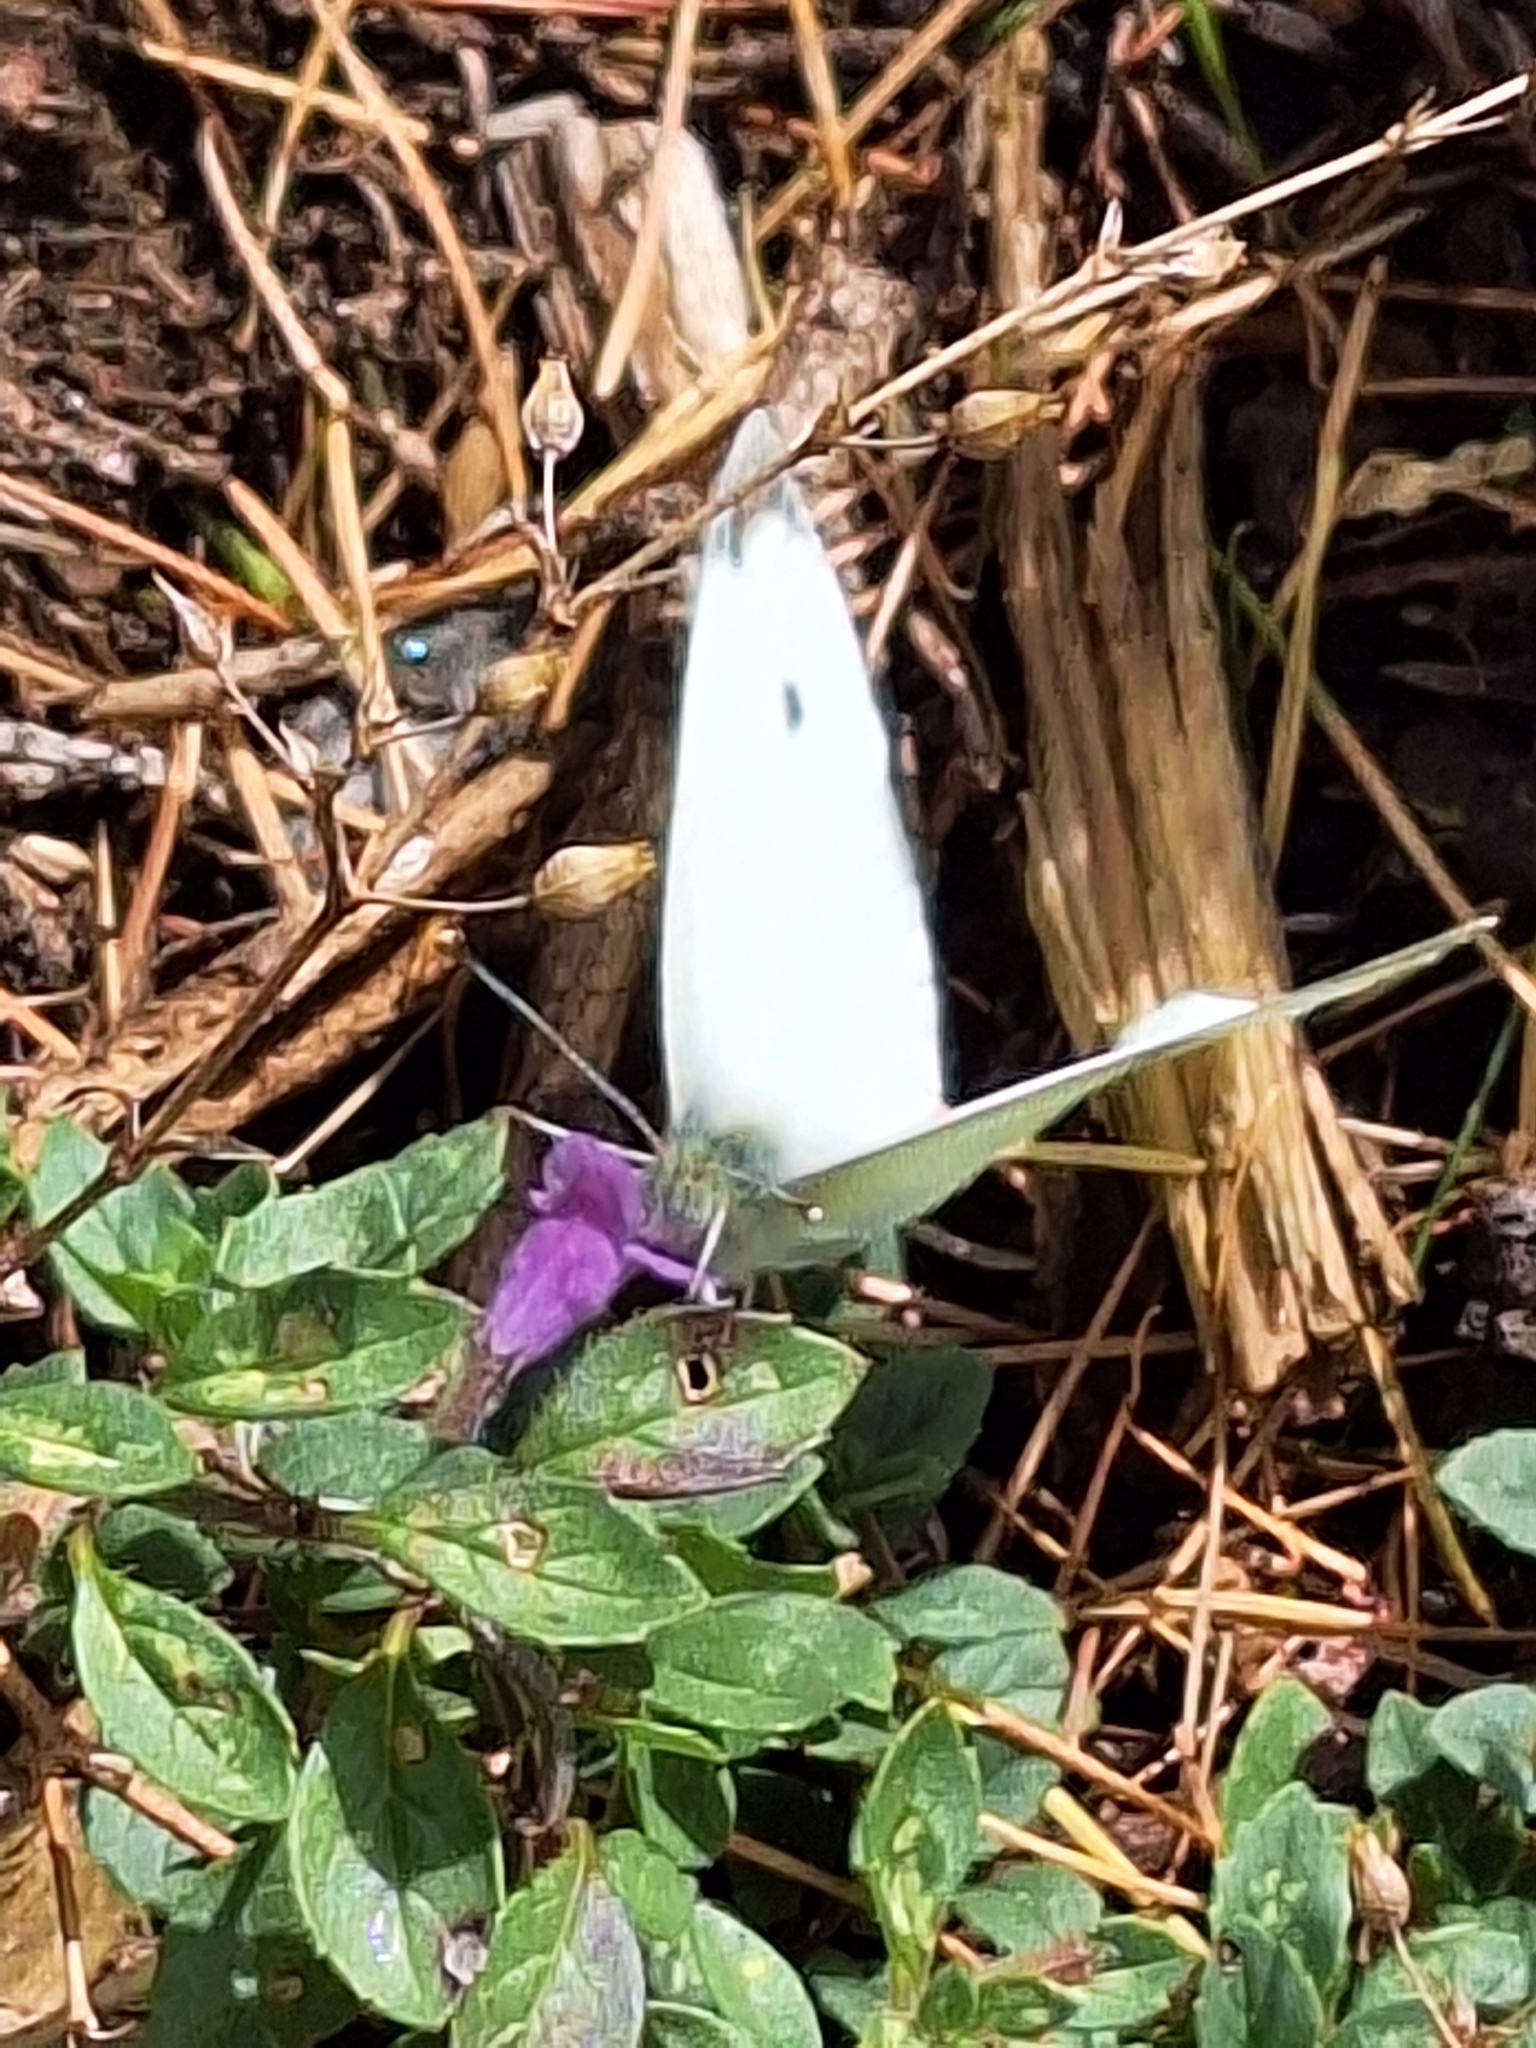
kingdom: Animalia
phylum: Arthropoda
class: Insecta
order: Lepidoptera
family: Pieridae
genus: Pieris
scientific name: Pieris rapae
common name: Small white
